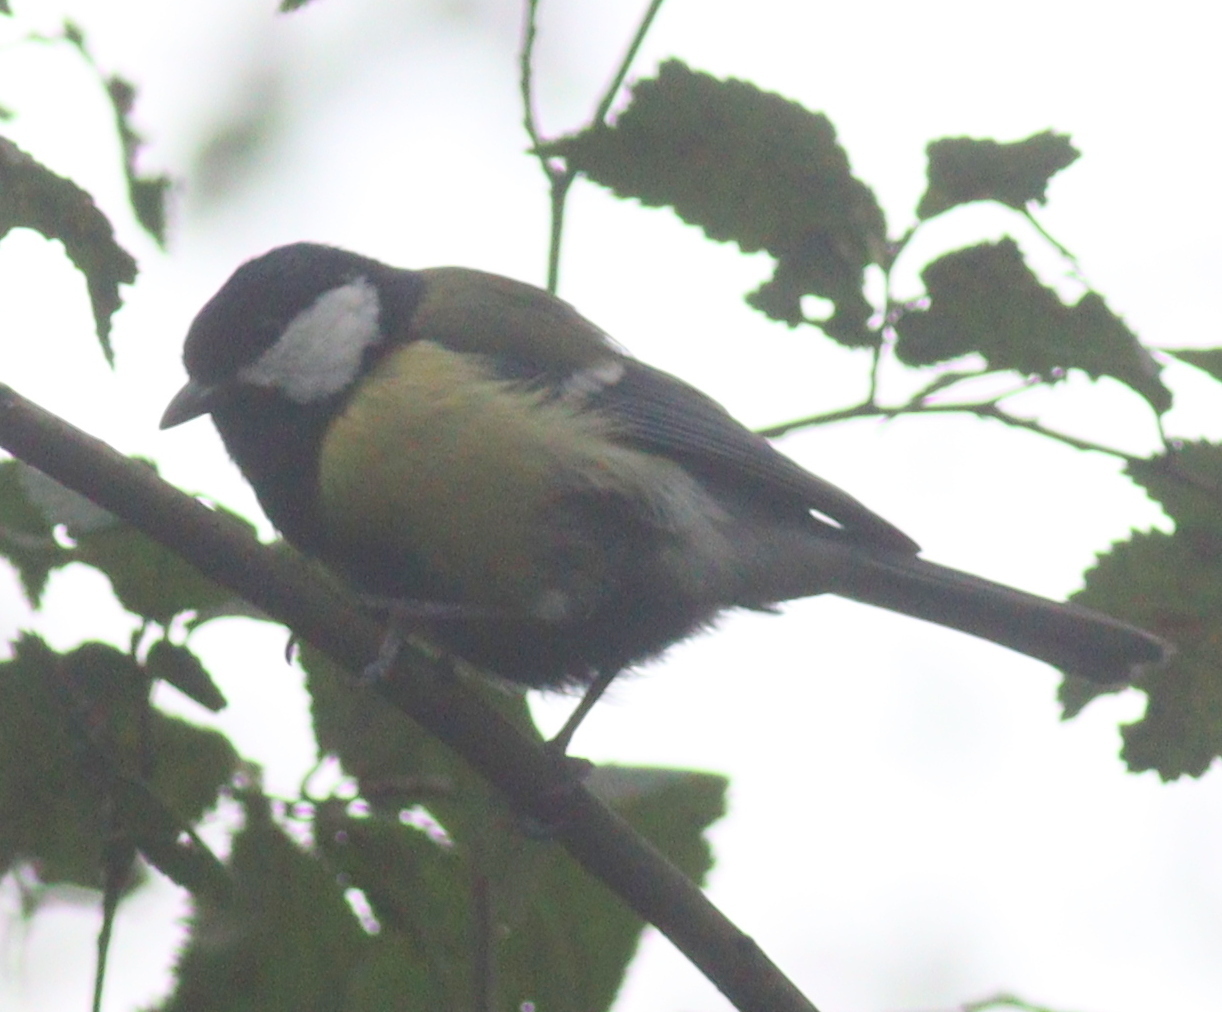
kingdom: Animalia
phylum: Chordata
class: Aves
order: Passeriformes
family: Paridae
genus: Parus
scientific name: Parus major
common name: Great tit
